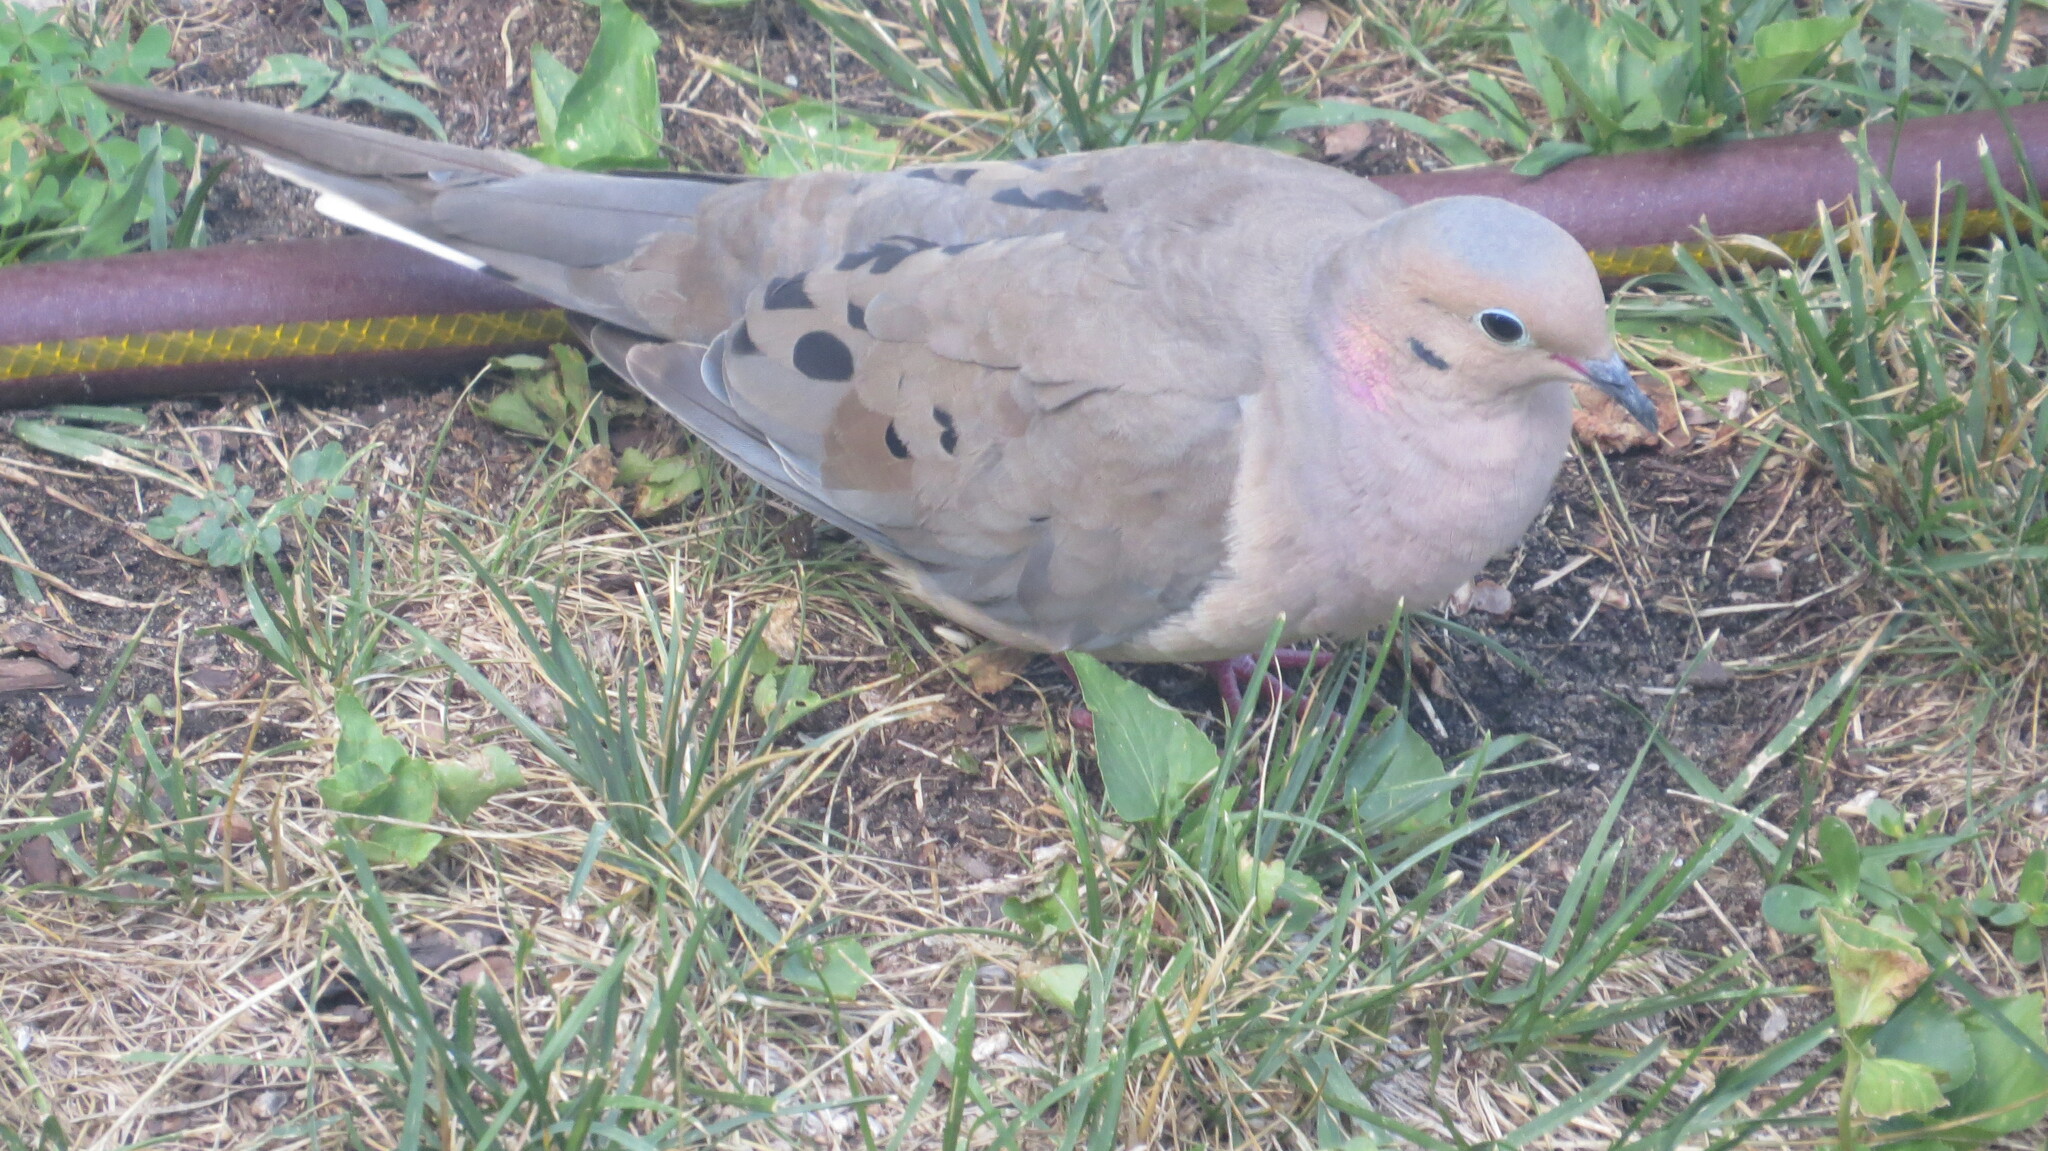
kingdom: Animalia
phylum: Chordata
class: Aves
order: Columbiformes
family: Columbidae
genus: Zenaida
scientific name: Zenaida macroura
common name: Mourning dove
